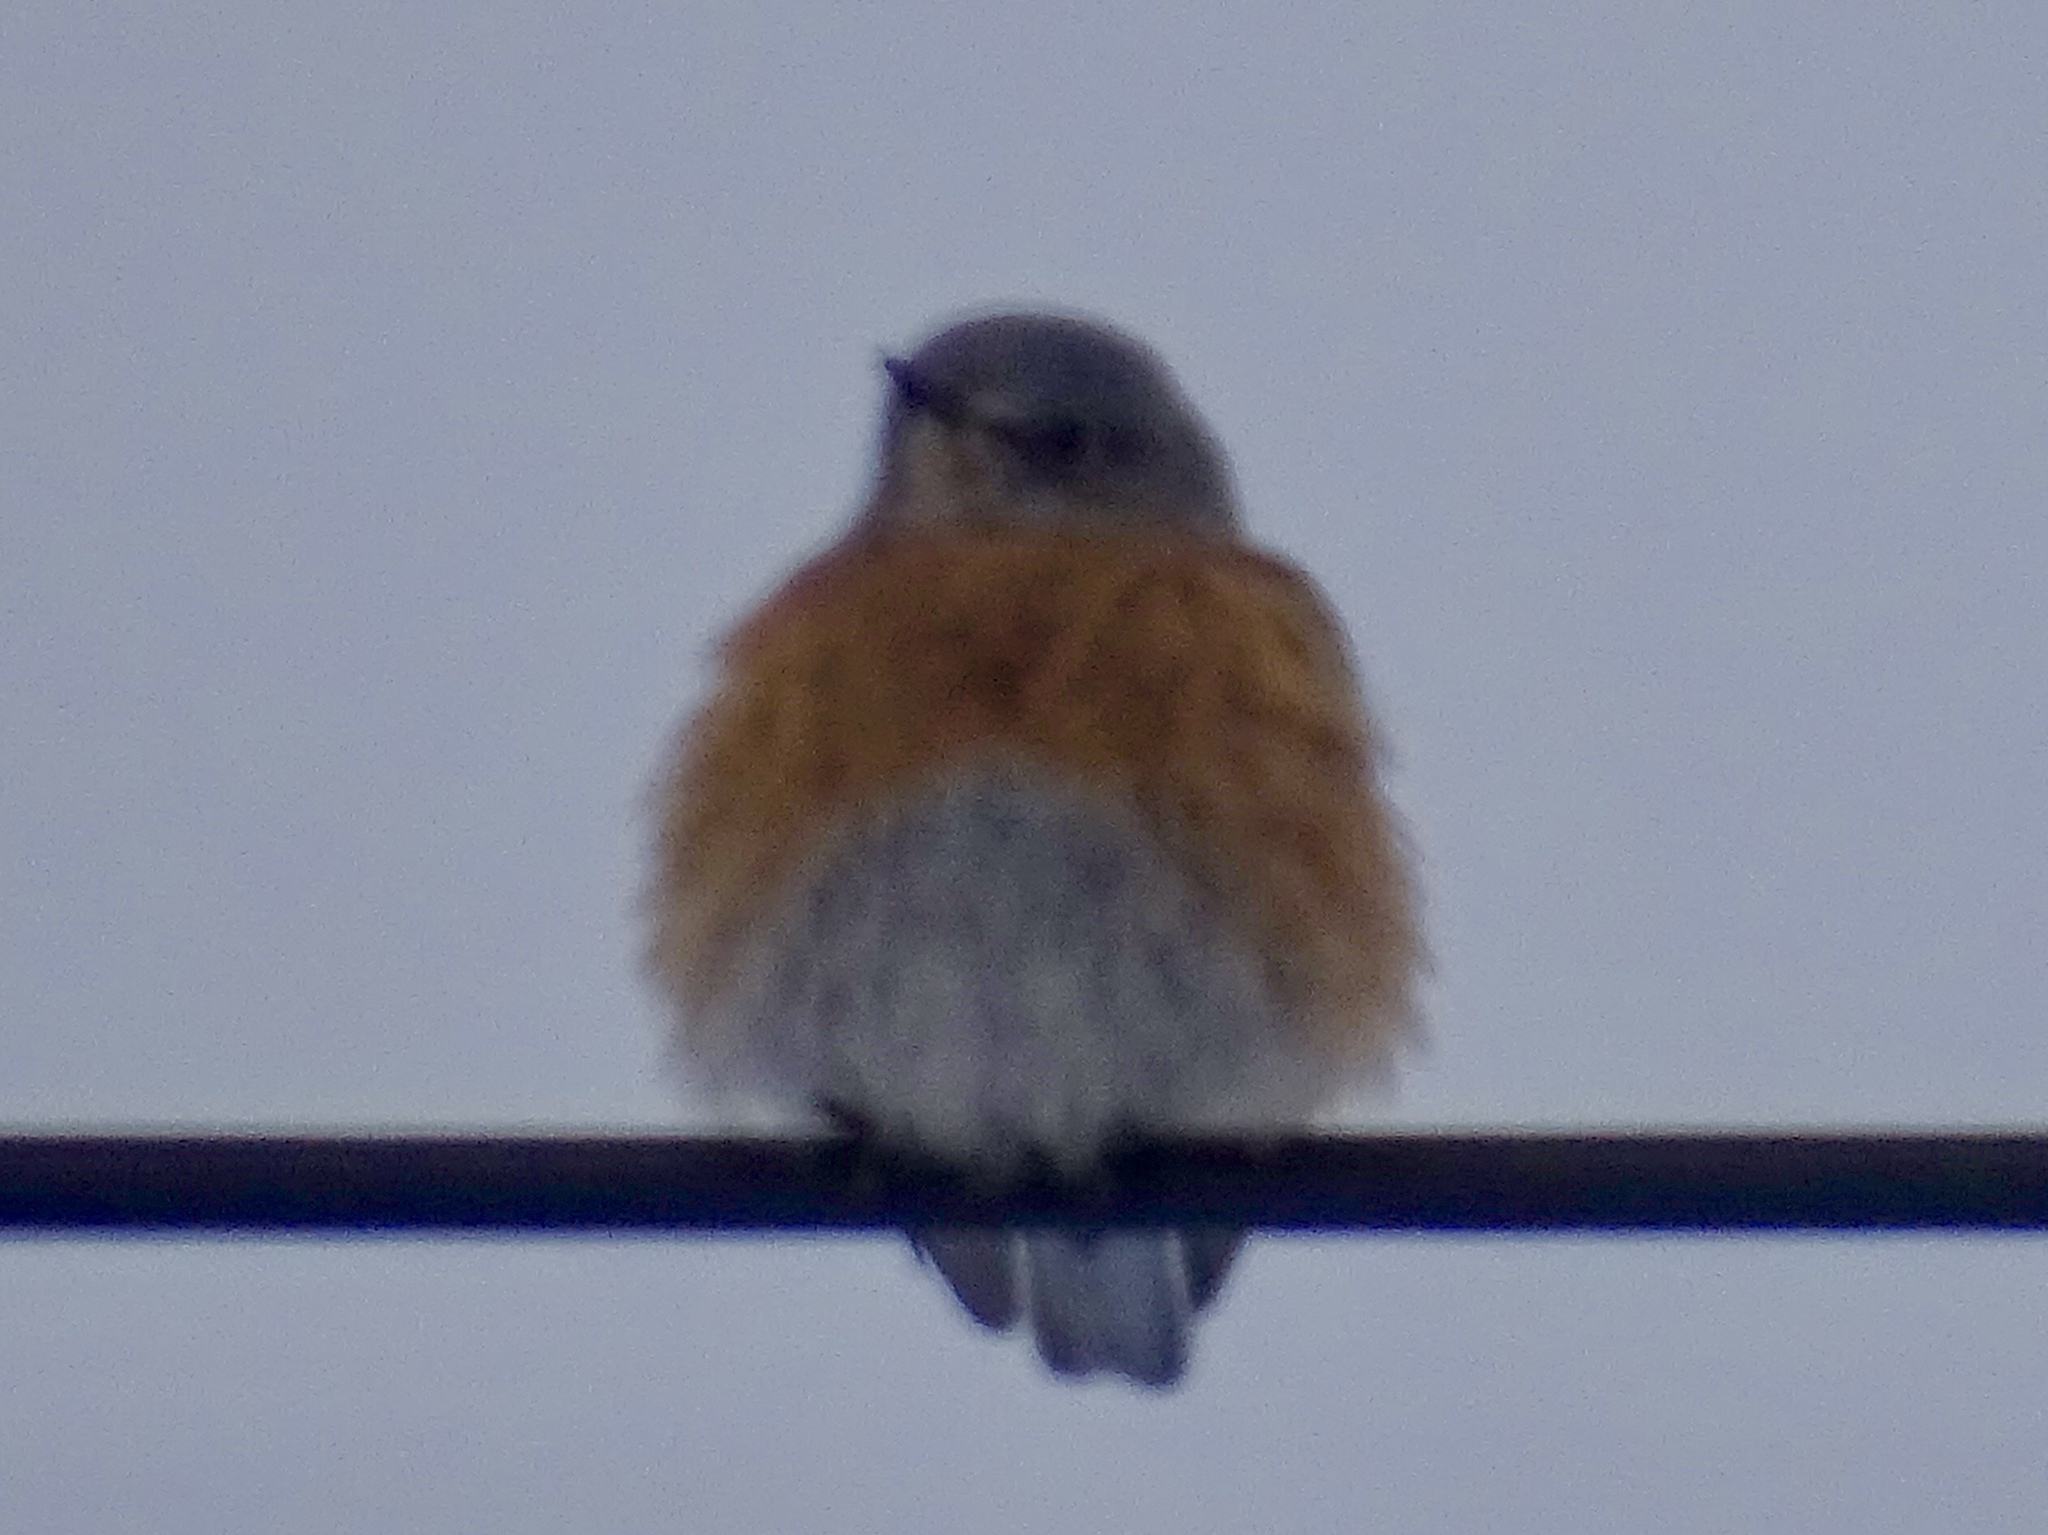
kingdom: Animalia
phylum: Chordata
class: Aves
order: Passeriformes
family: Turdidae
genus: Sialia
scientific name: Sialia mexicana
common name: Western bluebird
